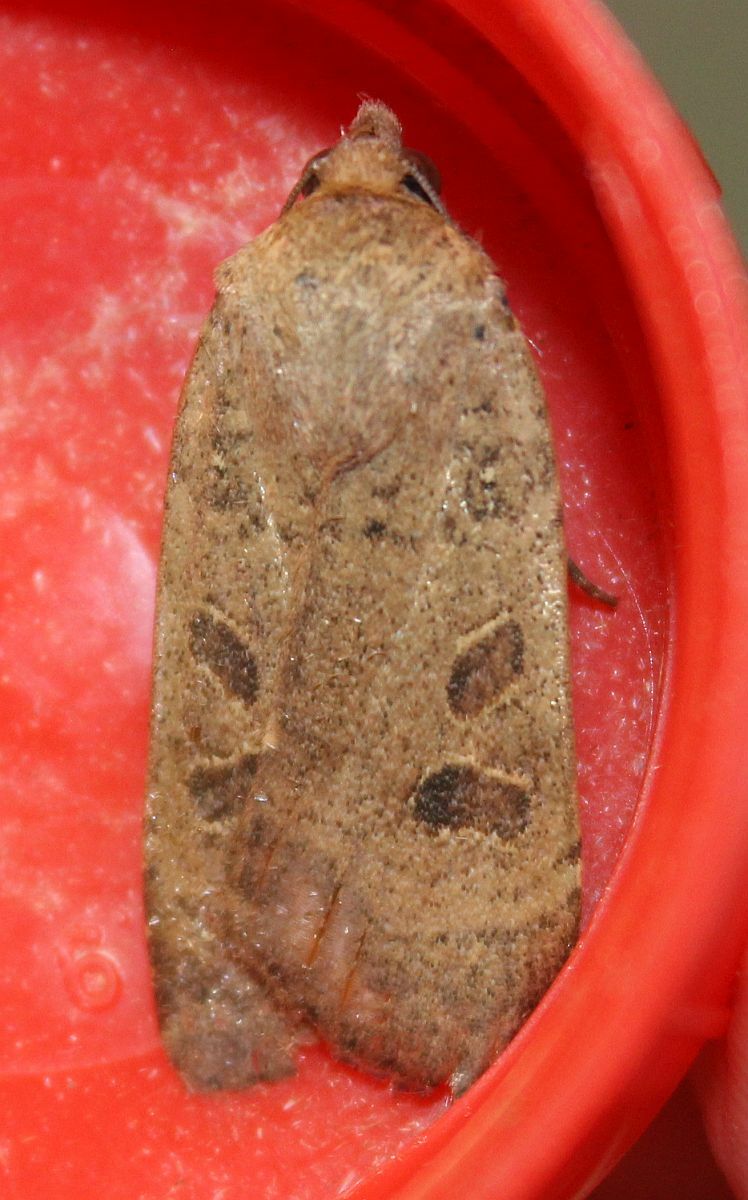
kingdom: Animalia
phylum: Arthropoda
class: Insecta
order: Lepidoptera
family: Noctuidae
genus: Noctua
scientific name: Noctua comes
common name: Lesser yellow underwing
